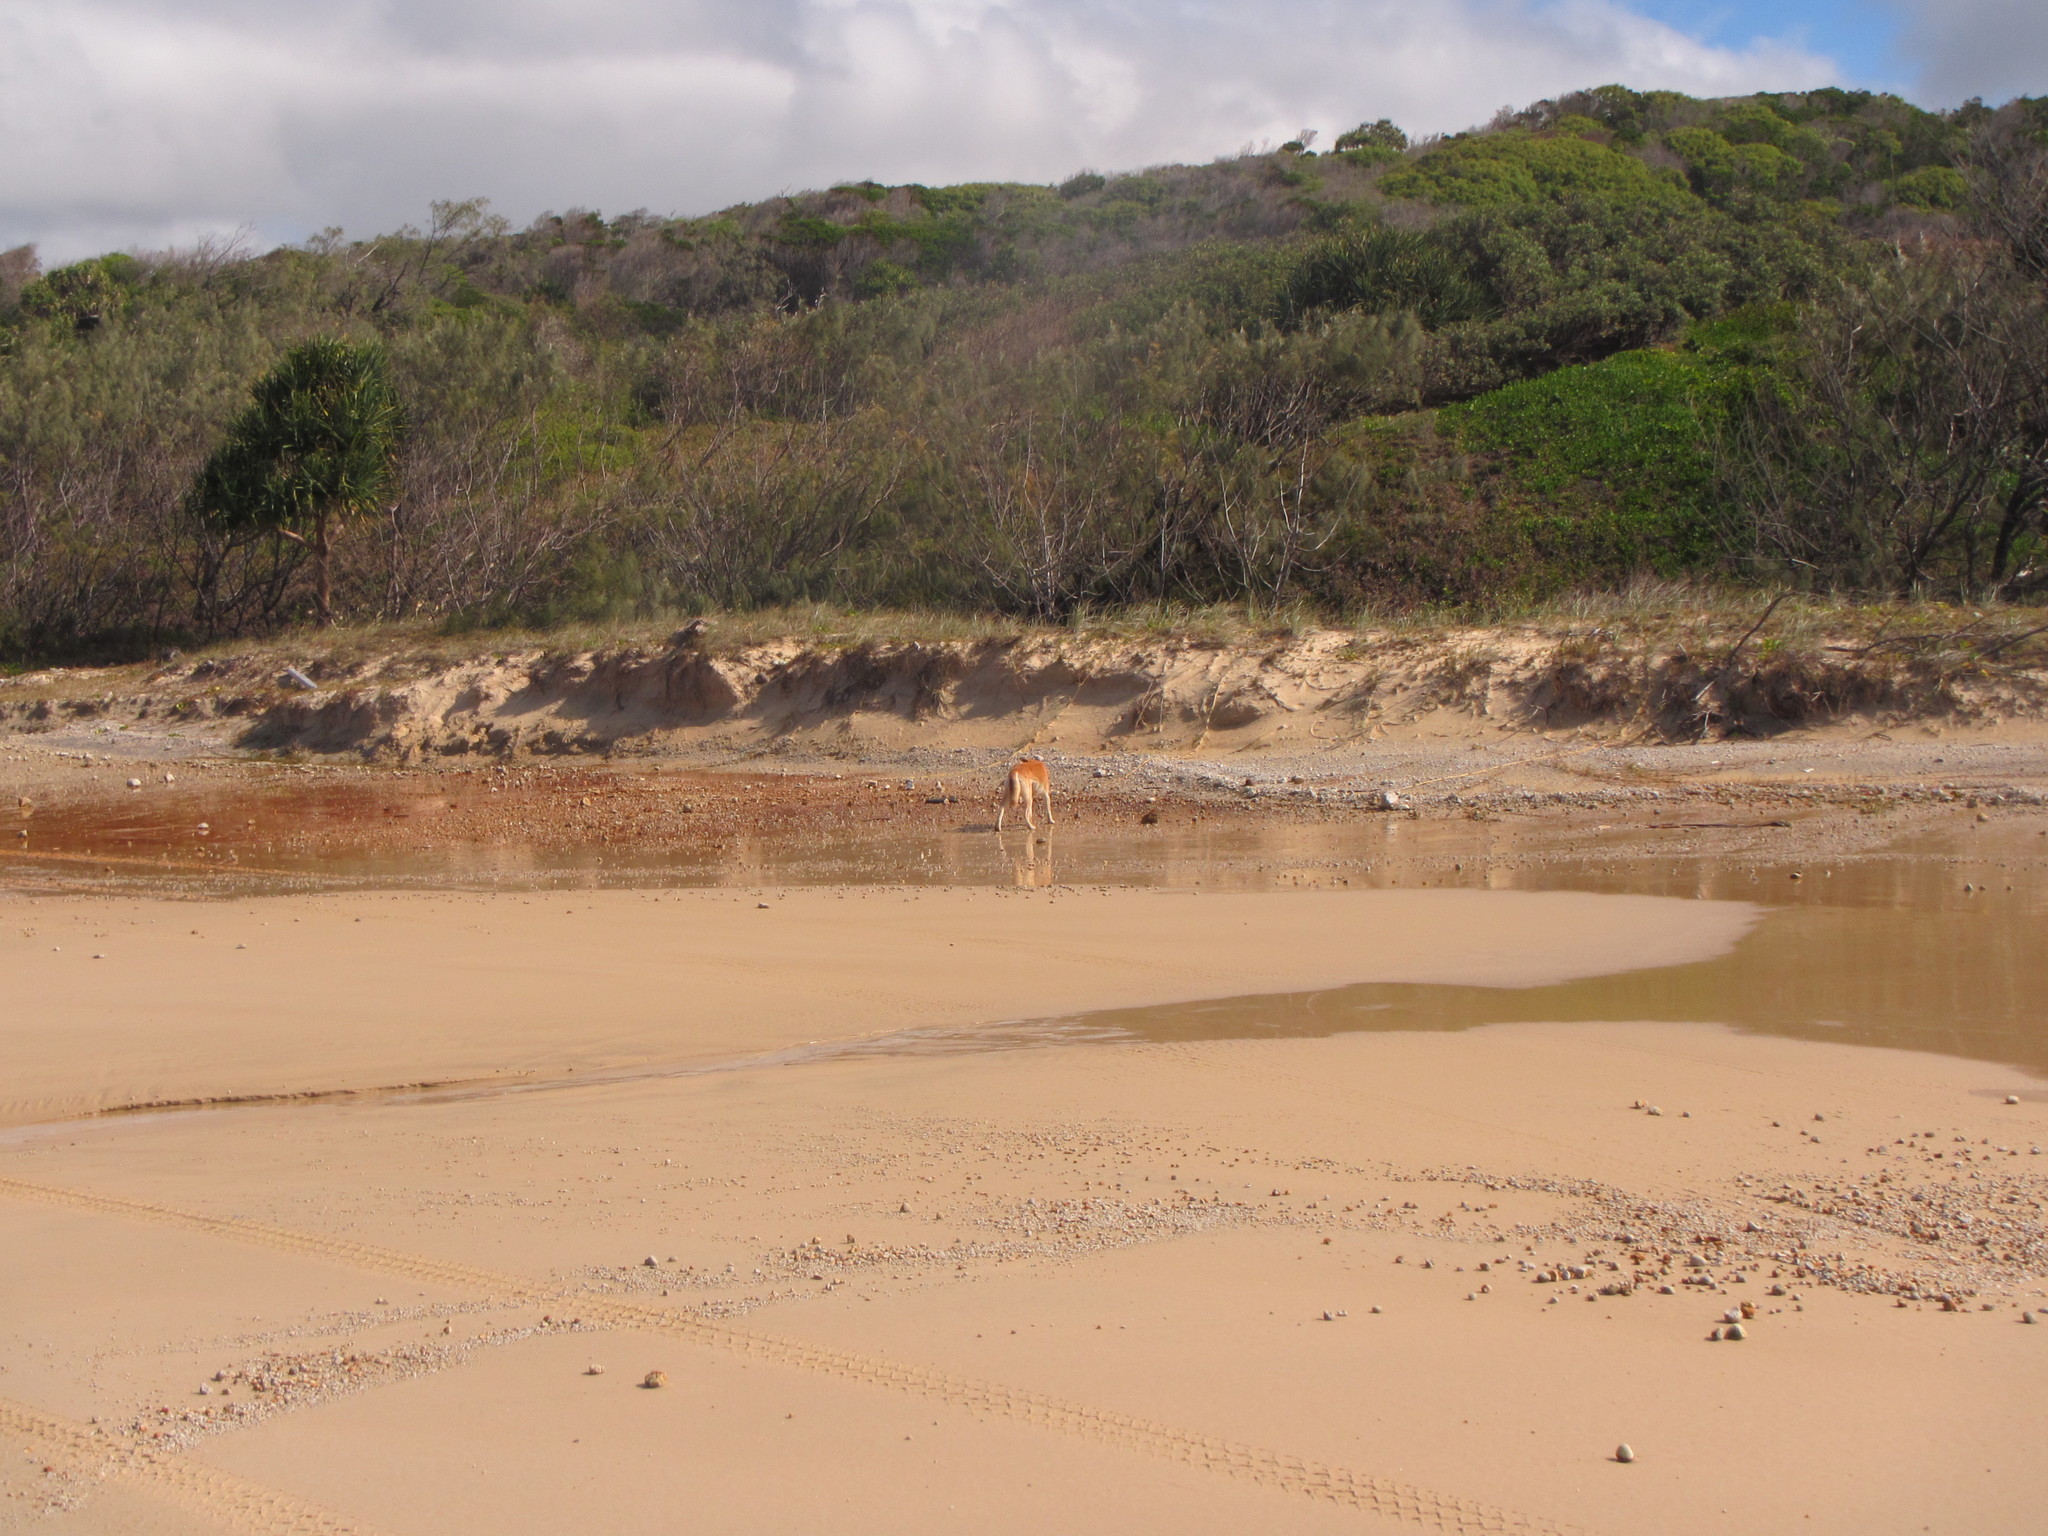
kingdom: Animalia
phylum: Chordata
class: Mammalia
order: Carnivora
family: Canidae
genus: Canis
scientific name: Canis lupus
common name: Gray wolf
